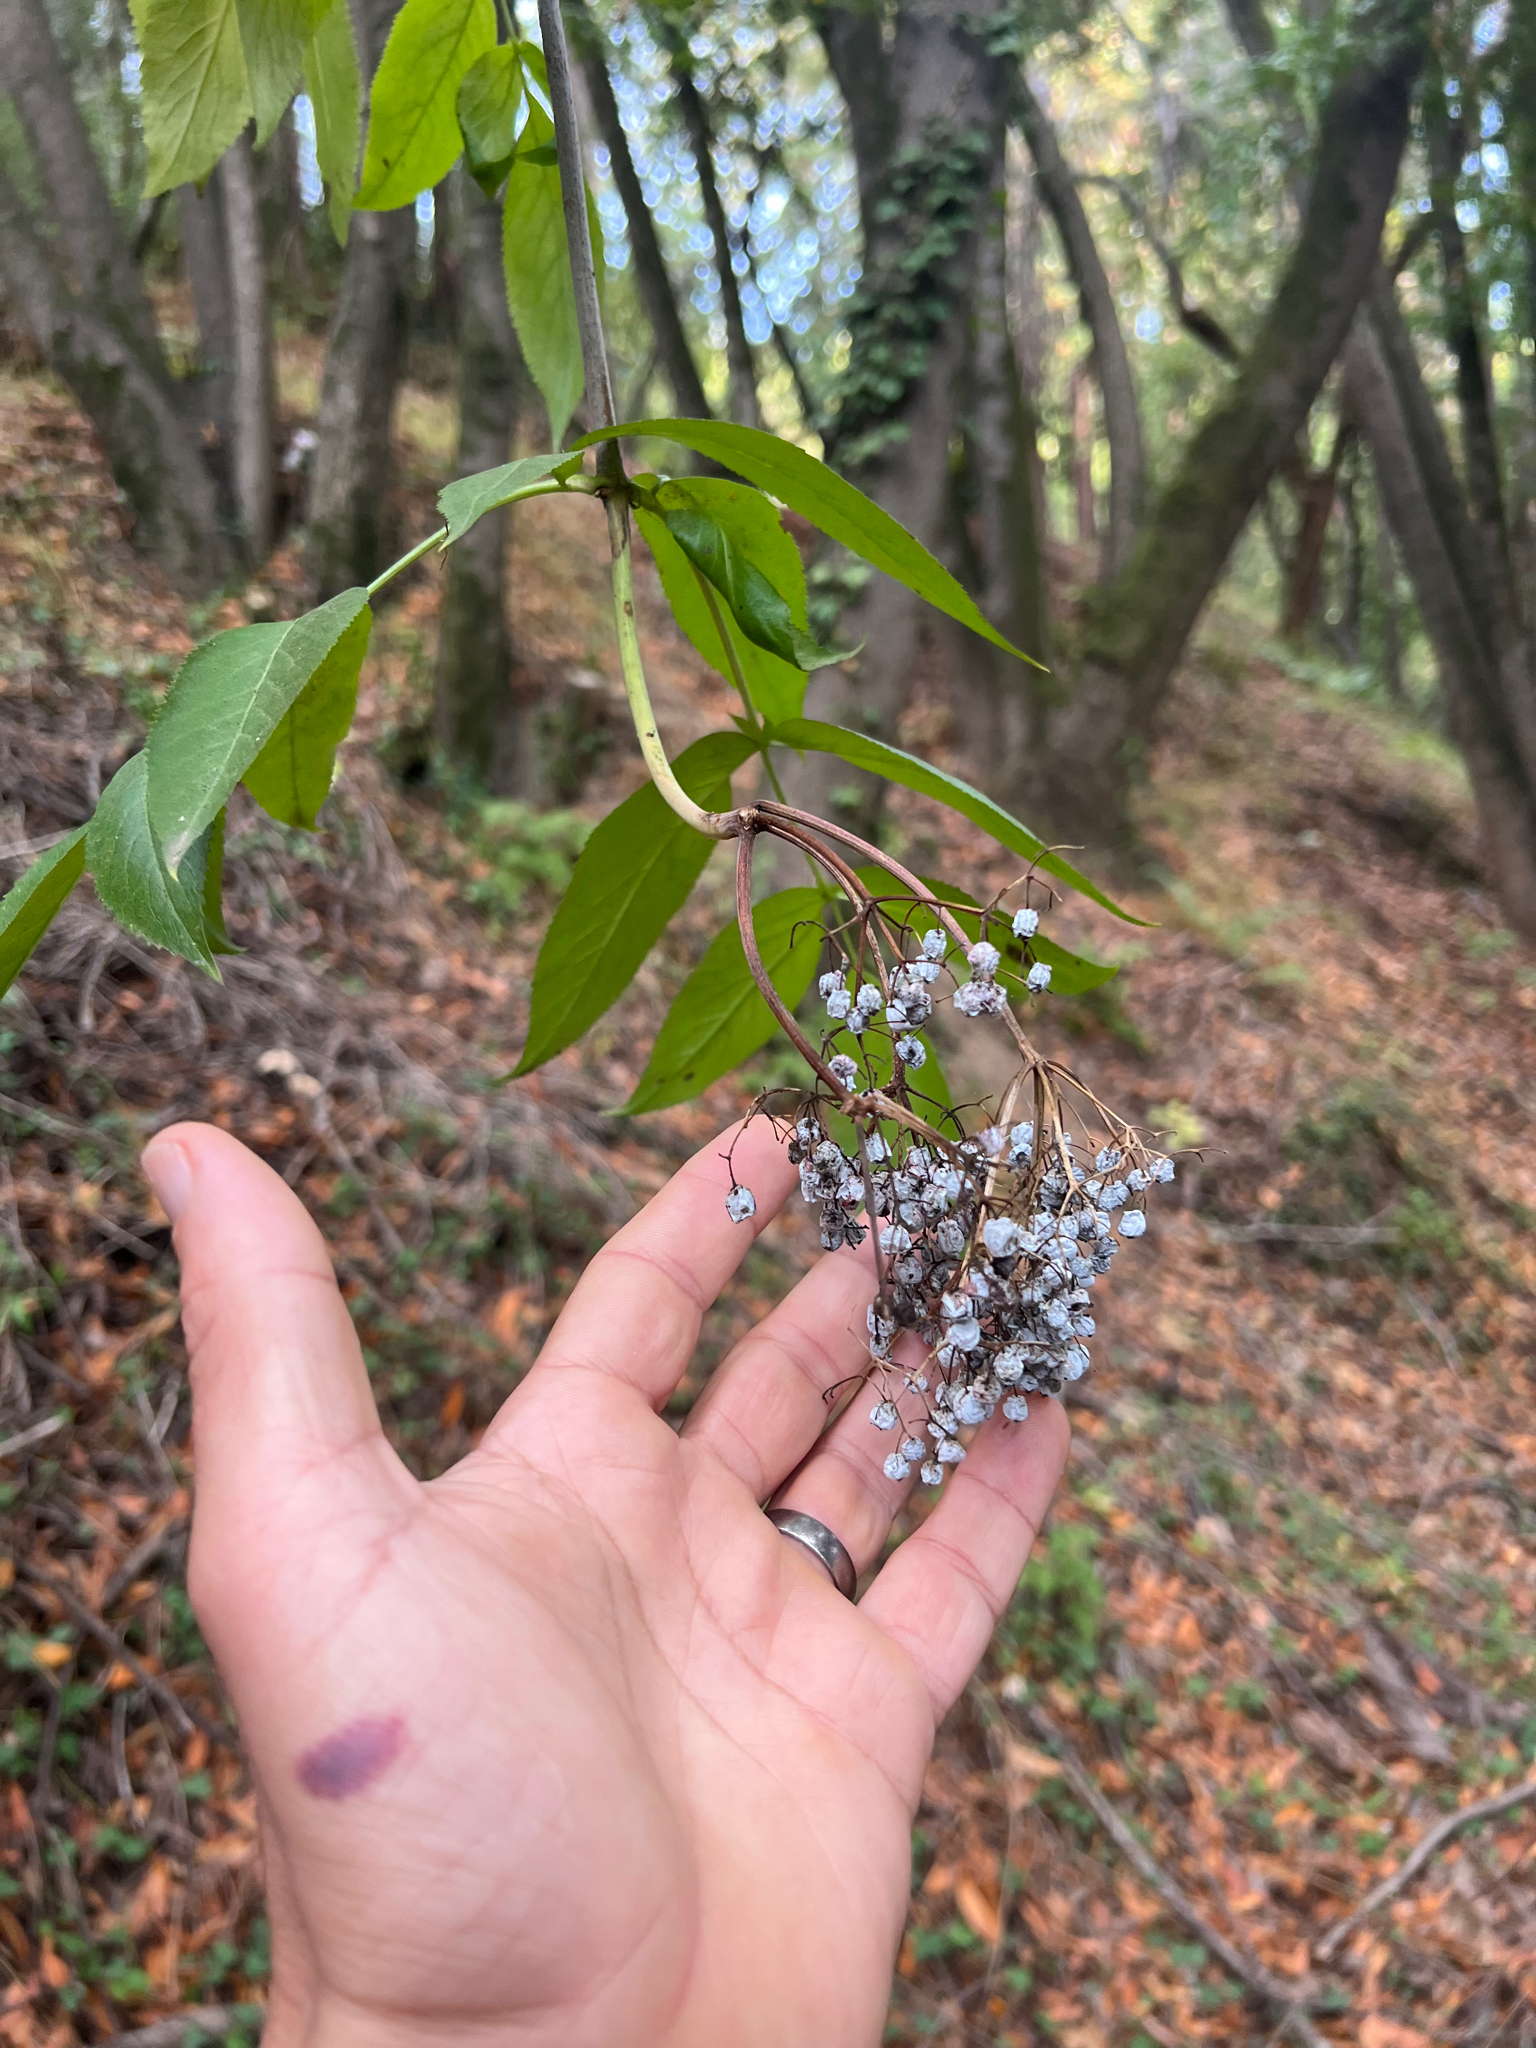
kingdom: Plantae
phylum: Tracheophyta
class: Magnoliopsida
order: Dipsacales
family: Viburnaceae
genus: Sambucus
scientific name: Sambucus cerulea
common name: Blue elder
